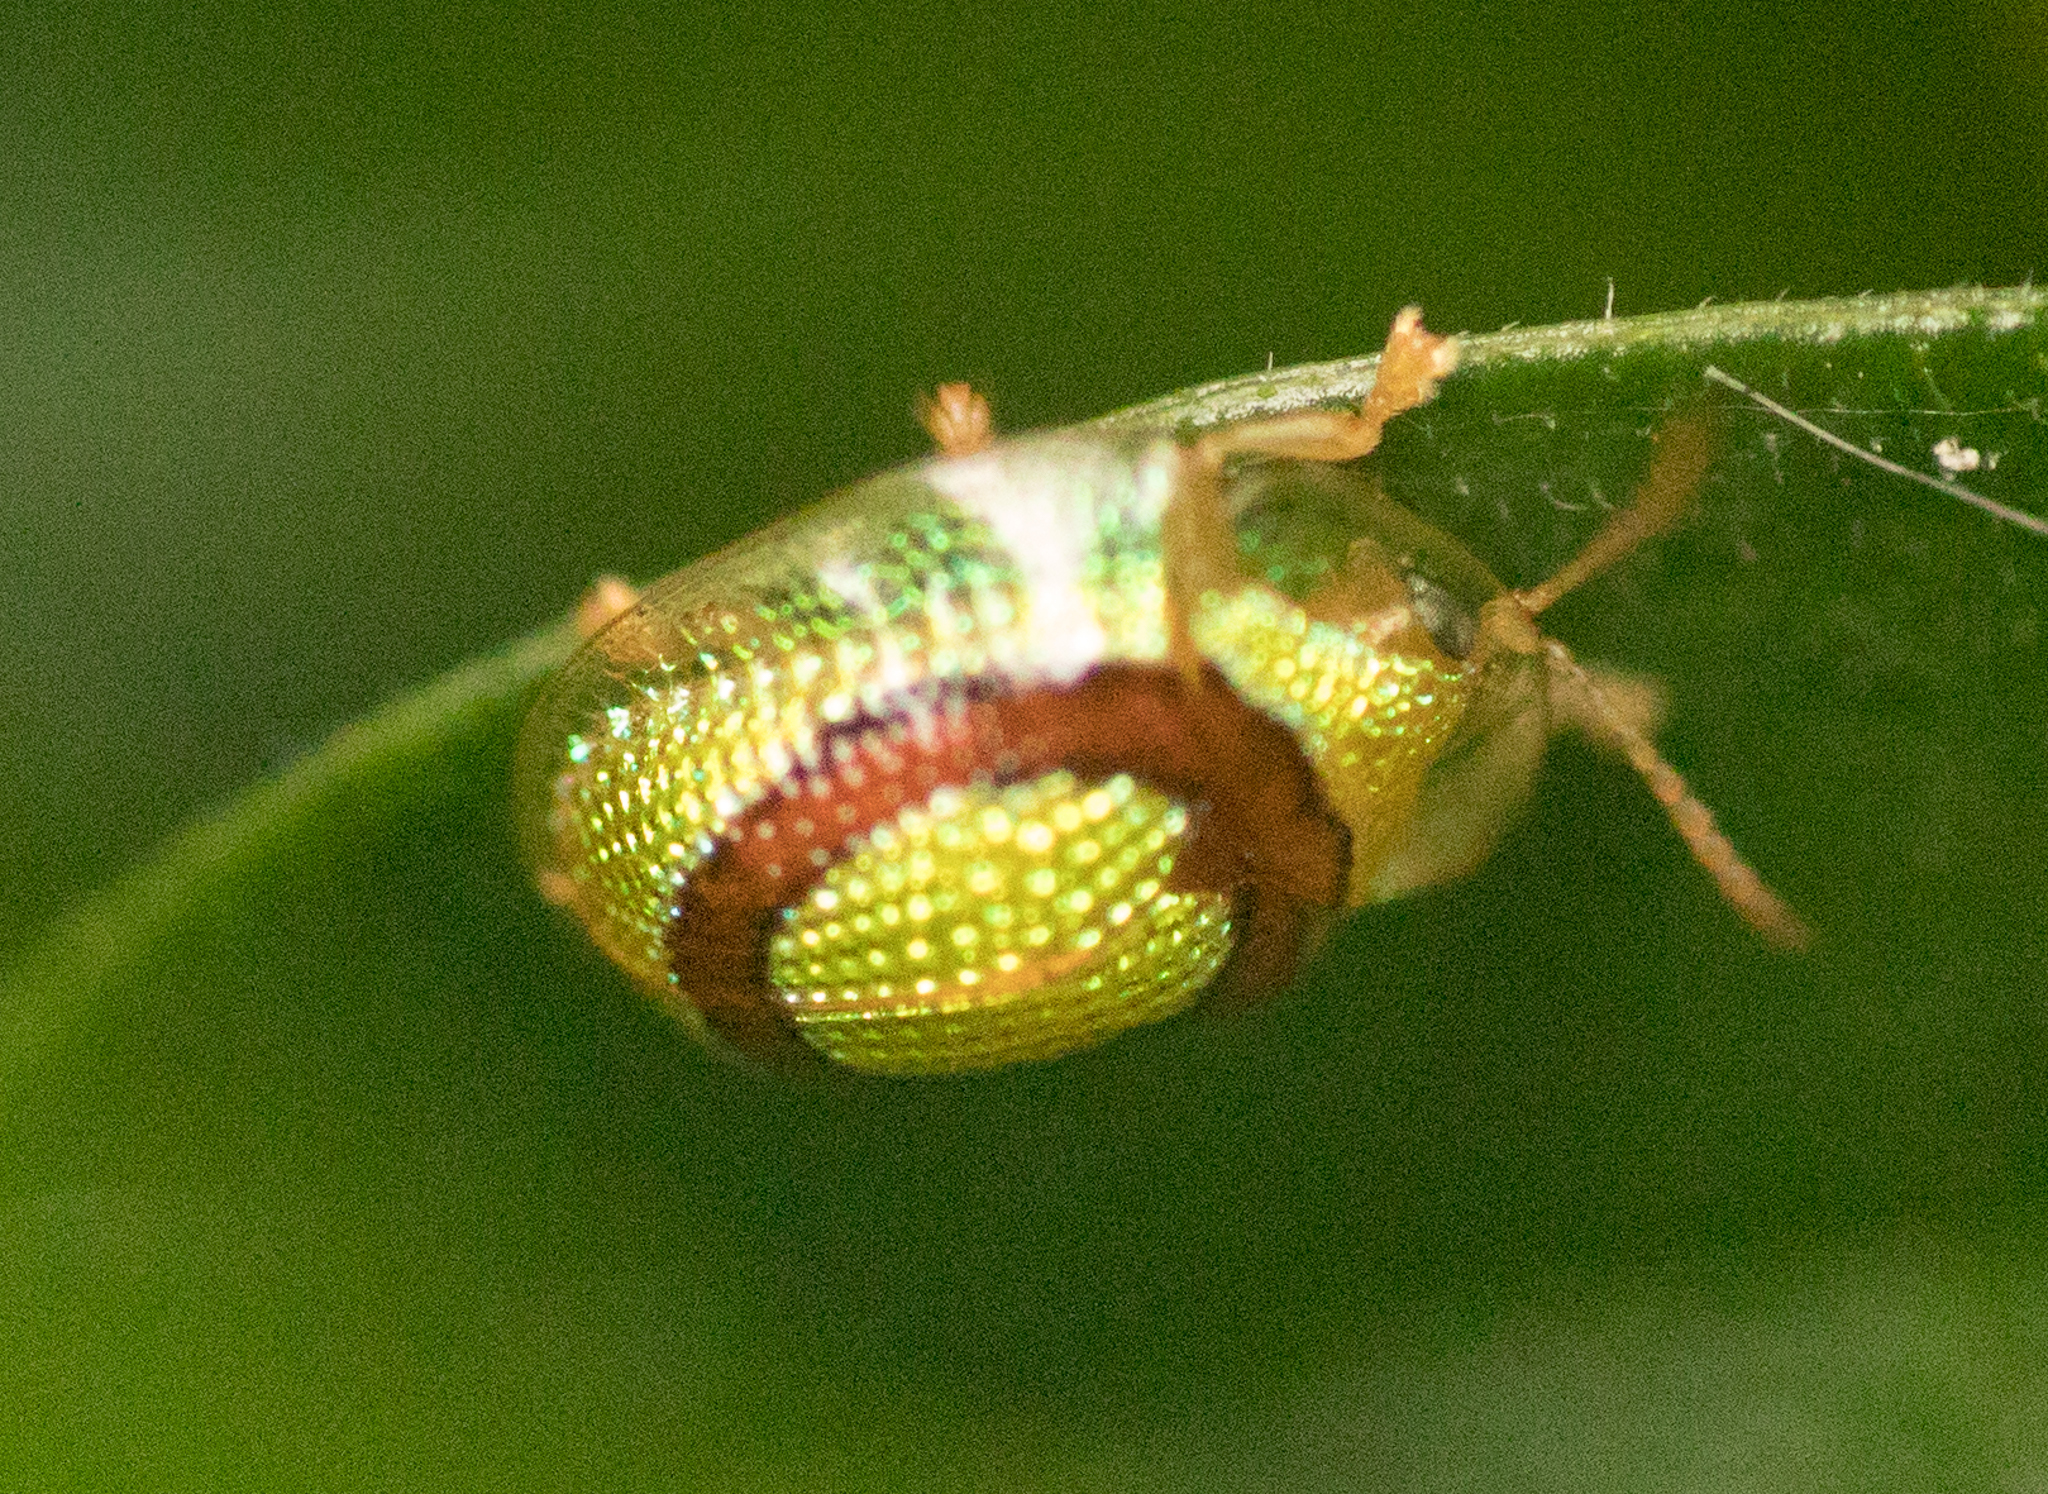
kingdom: Animalia
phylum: Arthropoda
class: Insecta
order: Coleoptera
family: Chrysomelidae
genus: Charidotis
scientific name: Charidotis abrupta
